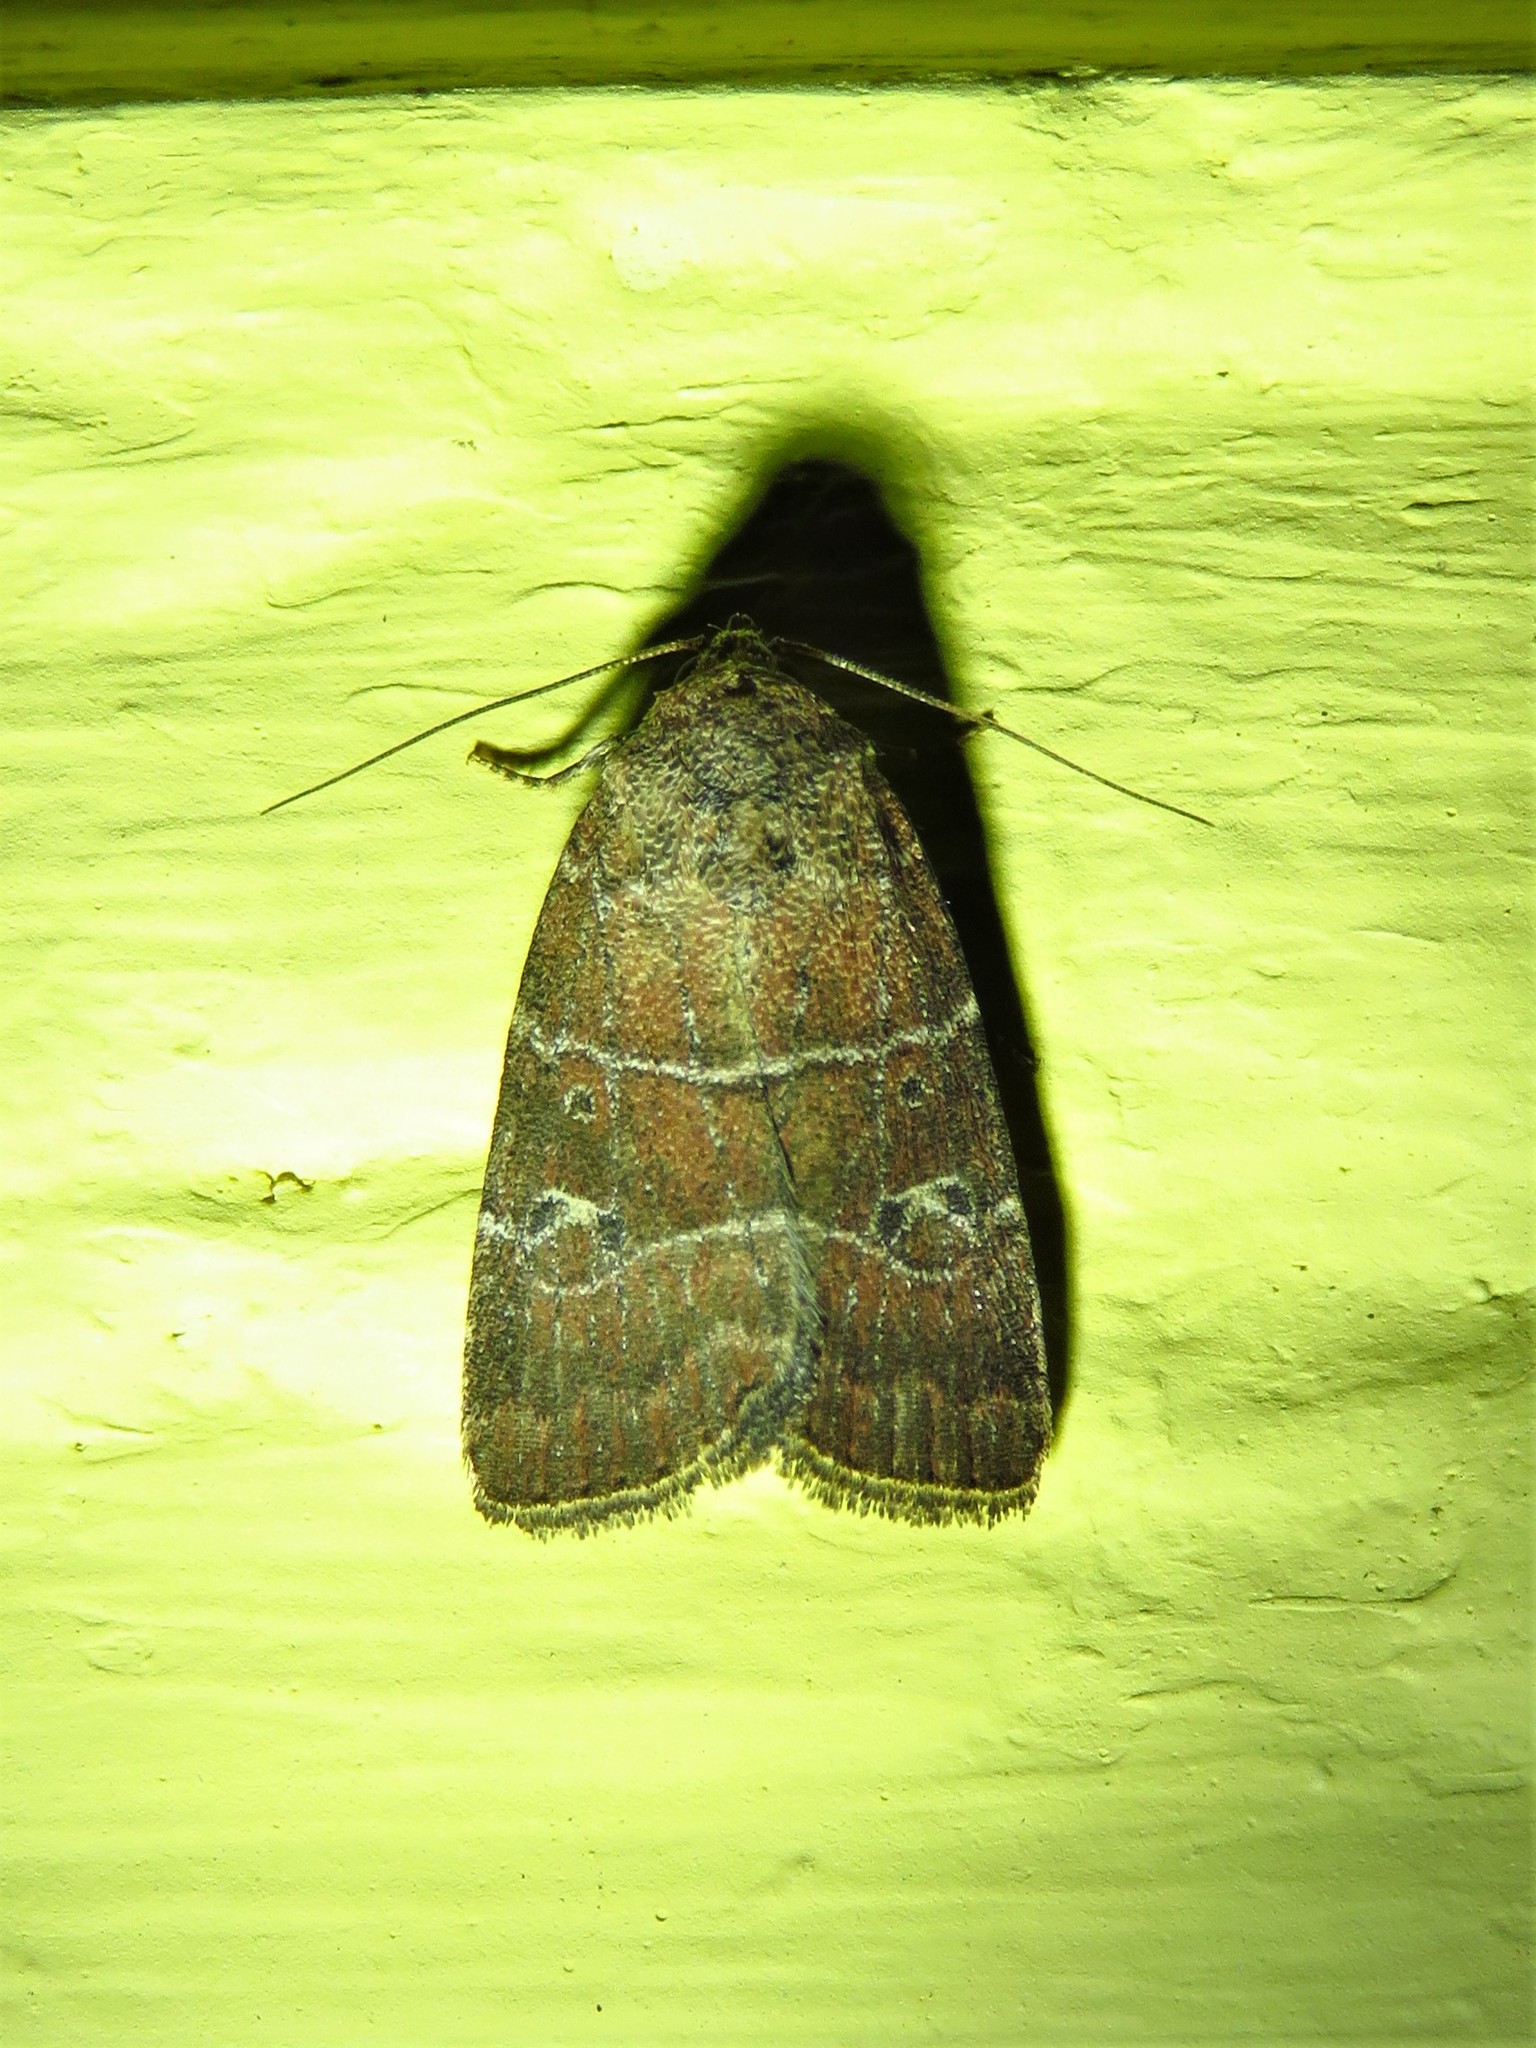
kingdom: Animalia
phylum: Arthropoda
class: Insecta
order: Lepidoptera
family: Noctuidae
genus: Elaphria
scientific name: Elaphria grata
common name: Grateful midget moth
